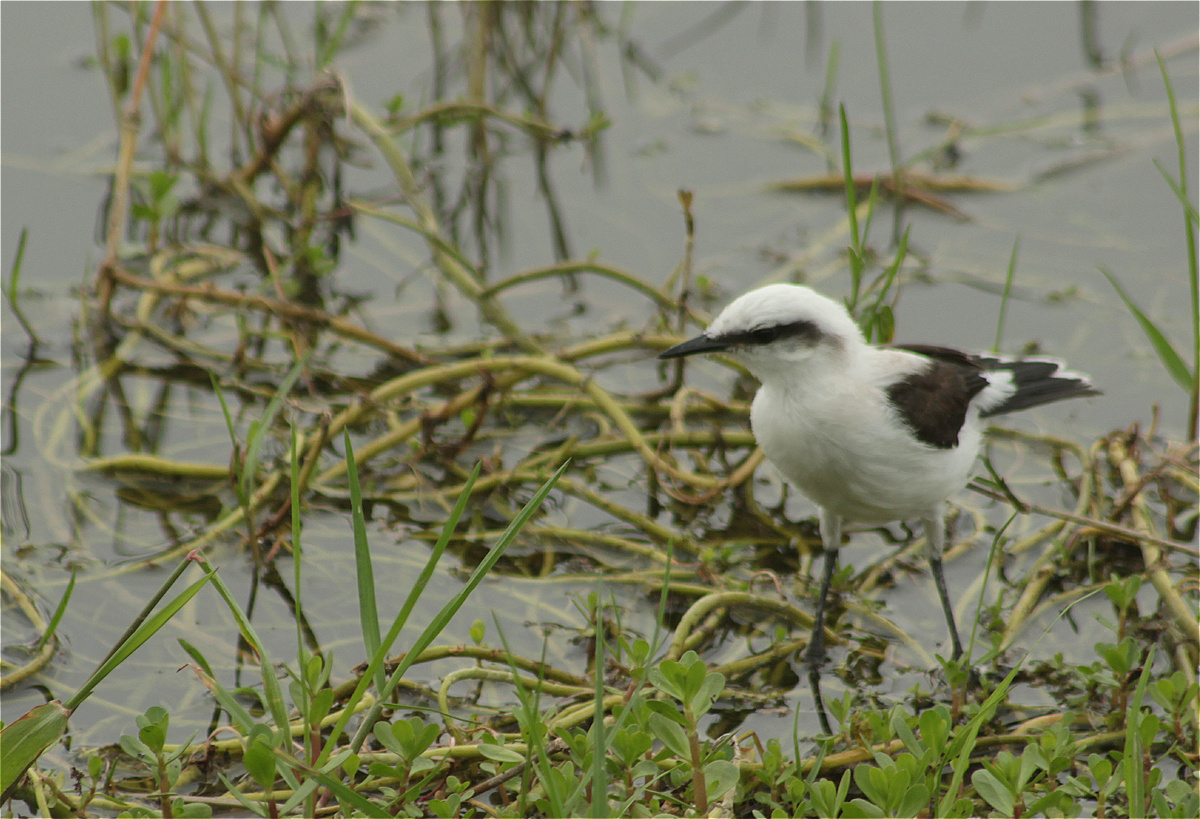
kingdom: Animalia
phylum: Chordata
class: Aves
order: Passeriformes
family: Tyrannidae
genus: Fluvicola
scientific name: Fluvicola nengeta
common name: Masked water tyrant
